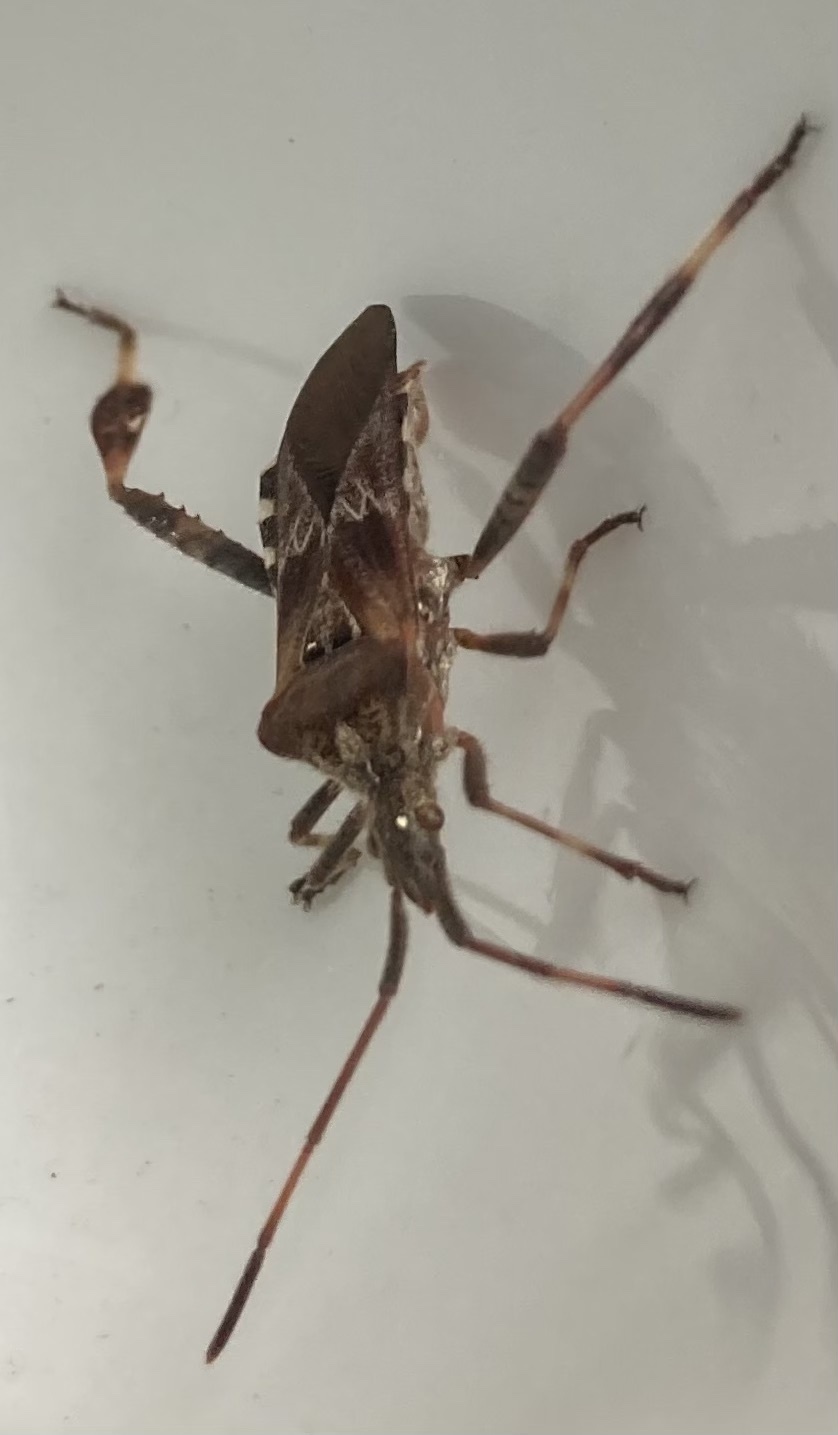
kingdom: Animalia
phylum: Arthropoda
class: Insecta
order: Hemiptera
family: Coreidae
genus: Leptoglossus
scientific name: Leptoglossus occidentalis
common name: Western conifer-seed bug
